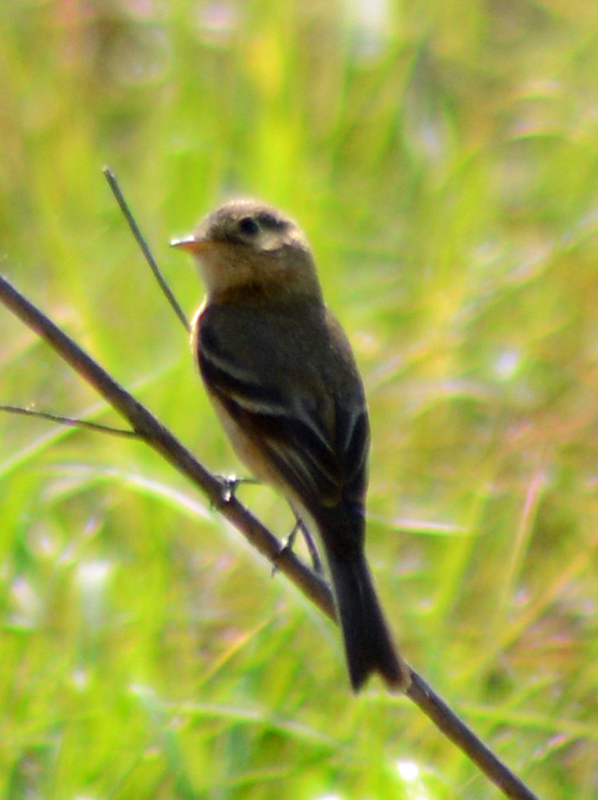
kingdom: Animalia
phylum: Chordata
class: Aves
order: Passeriformes
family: Tyrannidae
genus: Empidonax
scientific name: Empidonax fulvifrons
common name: Buff-breasted flycatcher
